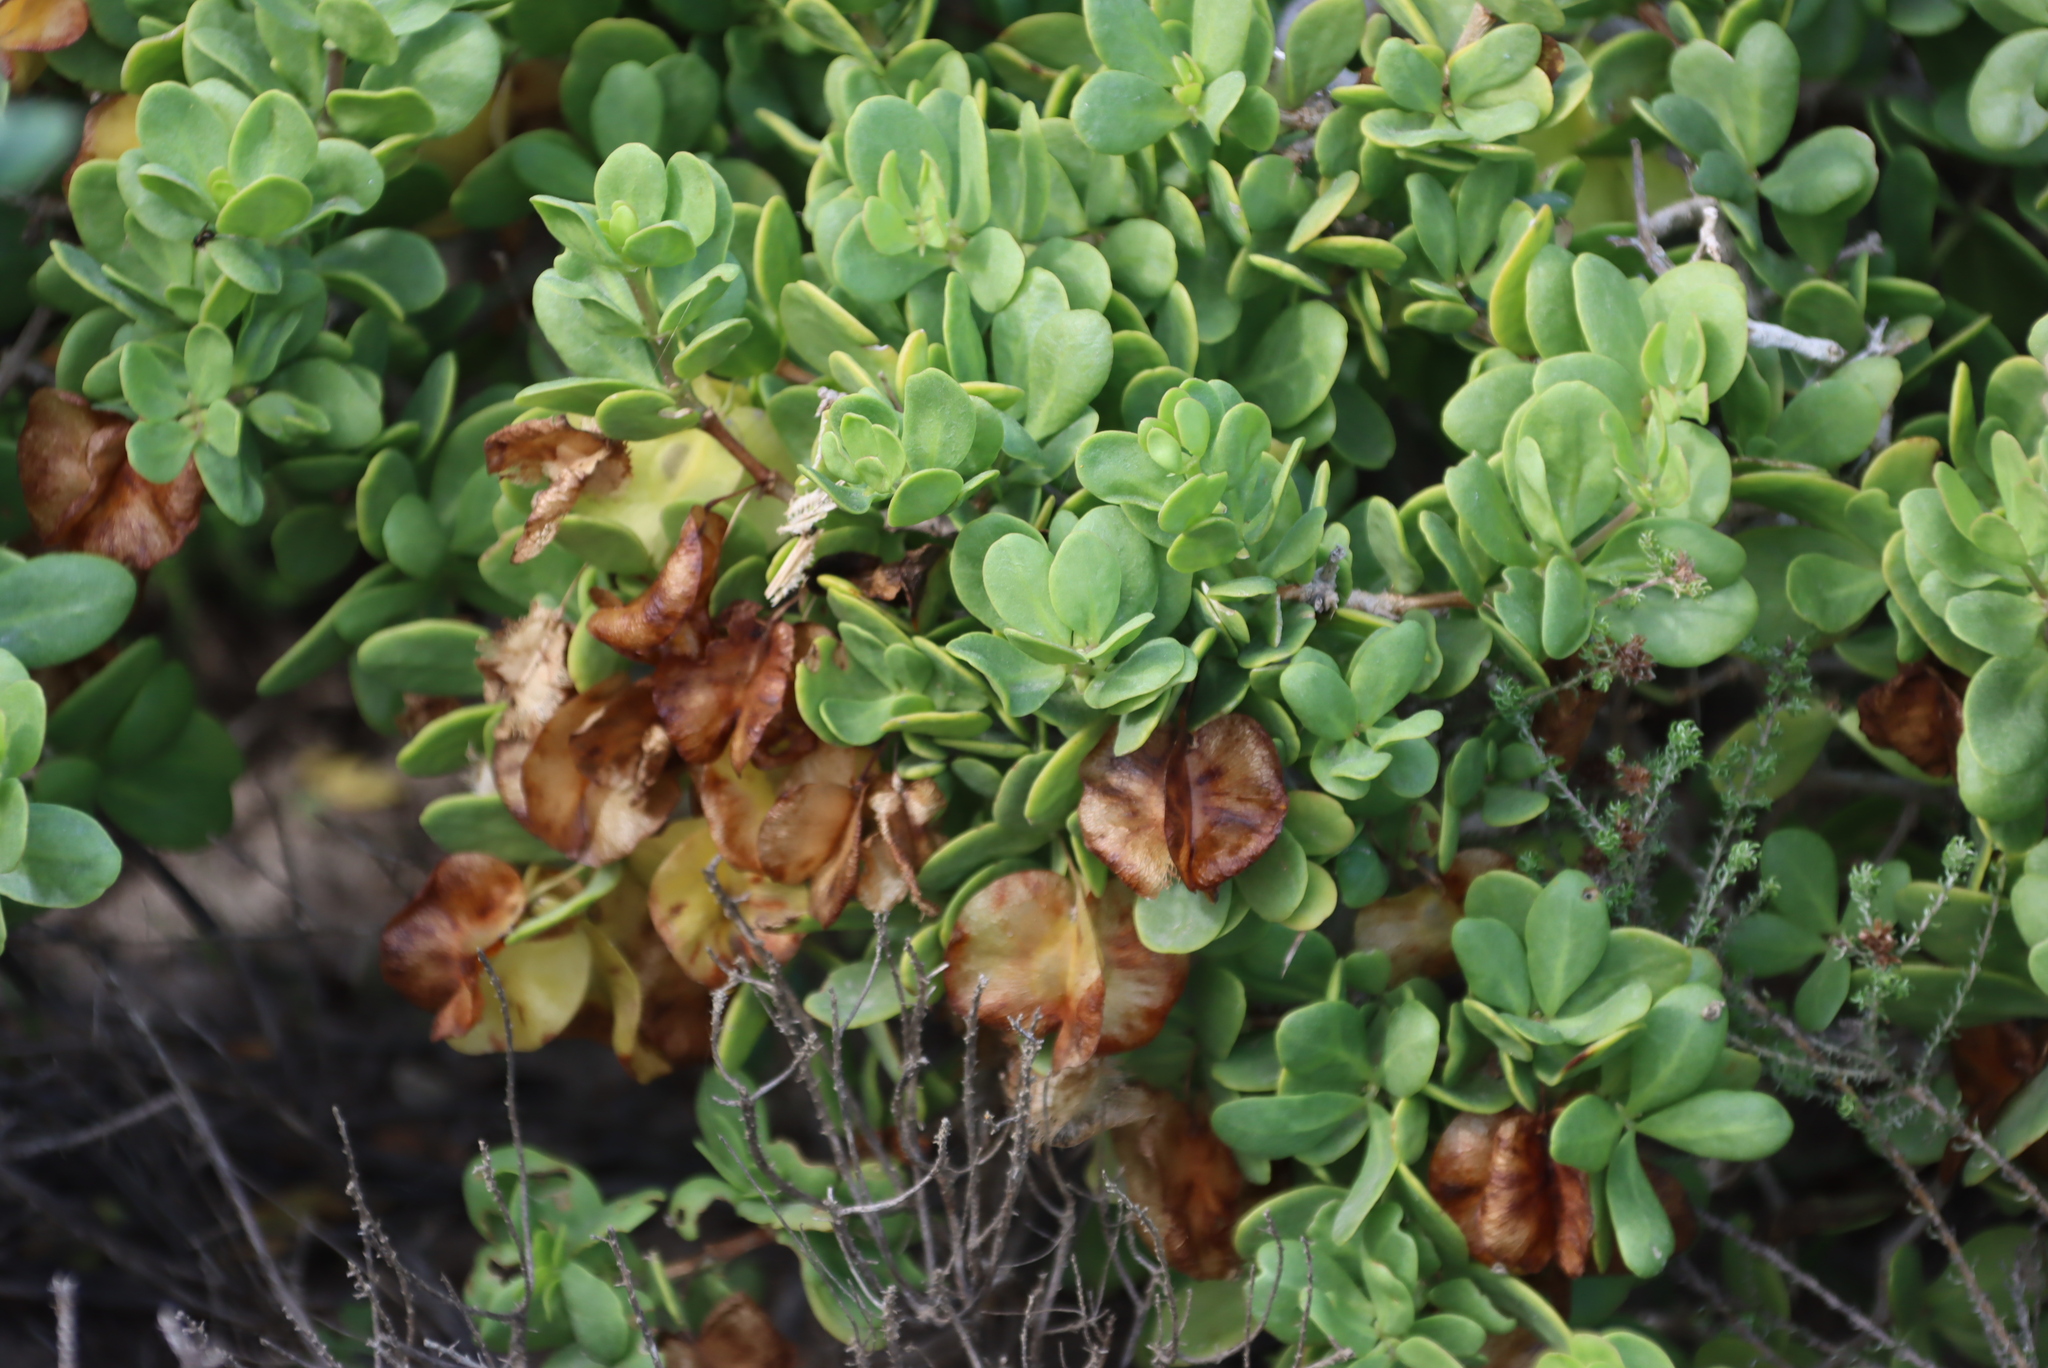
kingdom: Plantae
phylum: Tracheophyta
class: Magnoliopsida
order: Zygophyllales
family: Zygophyllaceae
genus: Roepera
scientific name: Roepera morgsana
